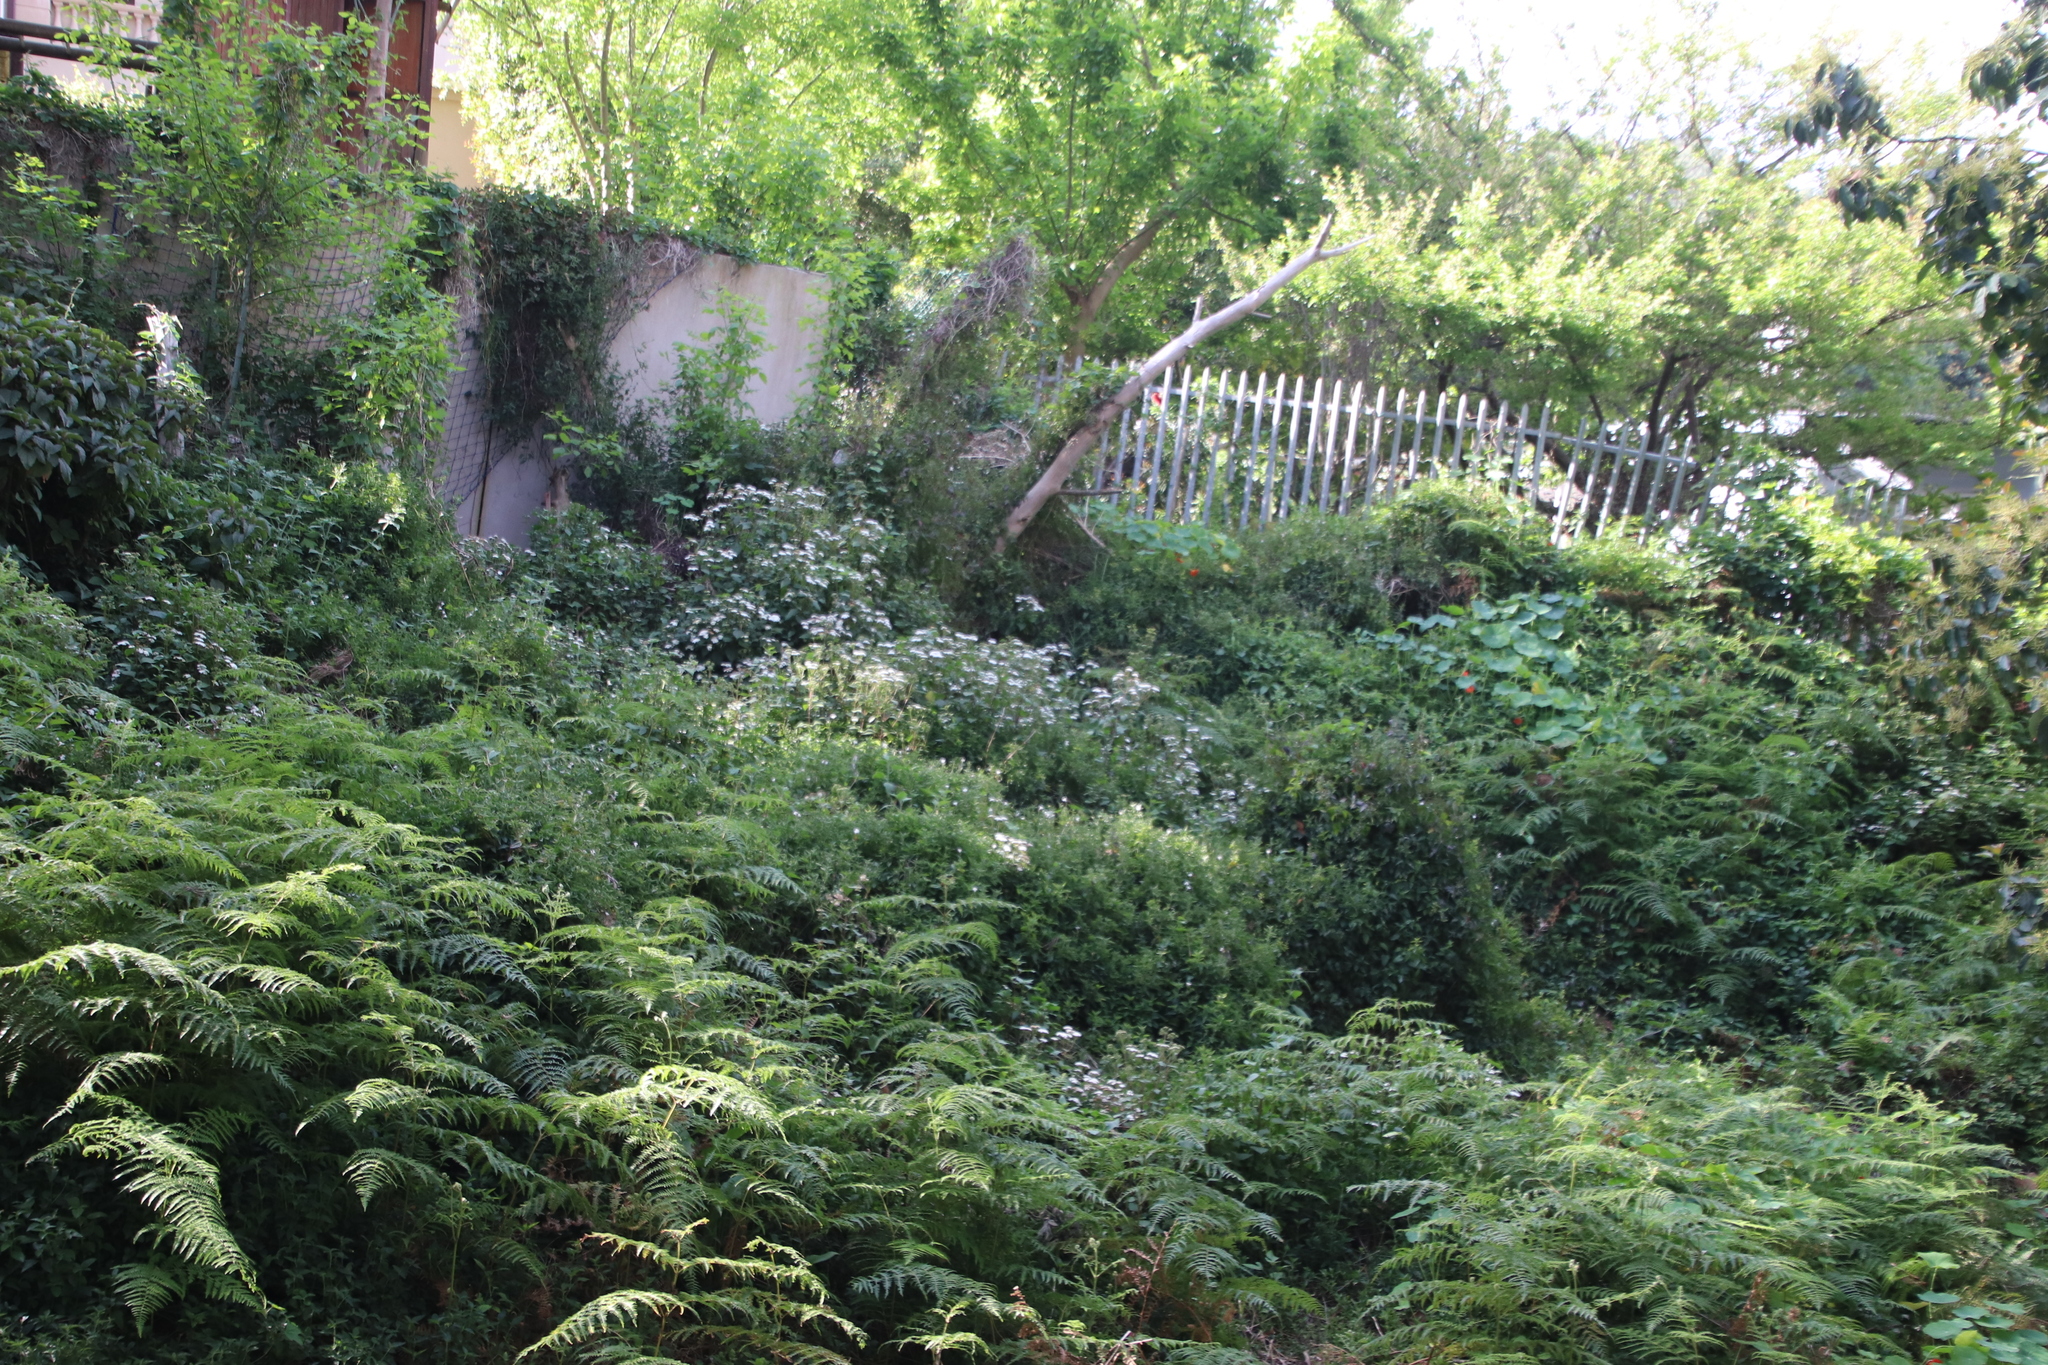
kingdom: Plantae
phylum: Tracheophyta
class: Magnoliopsida
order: Asterales
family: Asteraceae
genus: Ageratina
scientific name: Ageratina adenophora
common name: Sticky snakeroot
